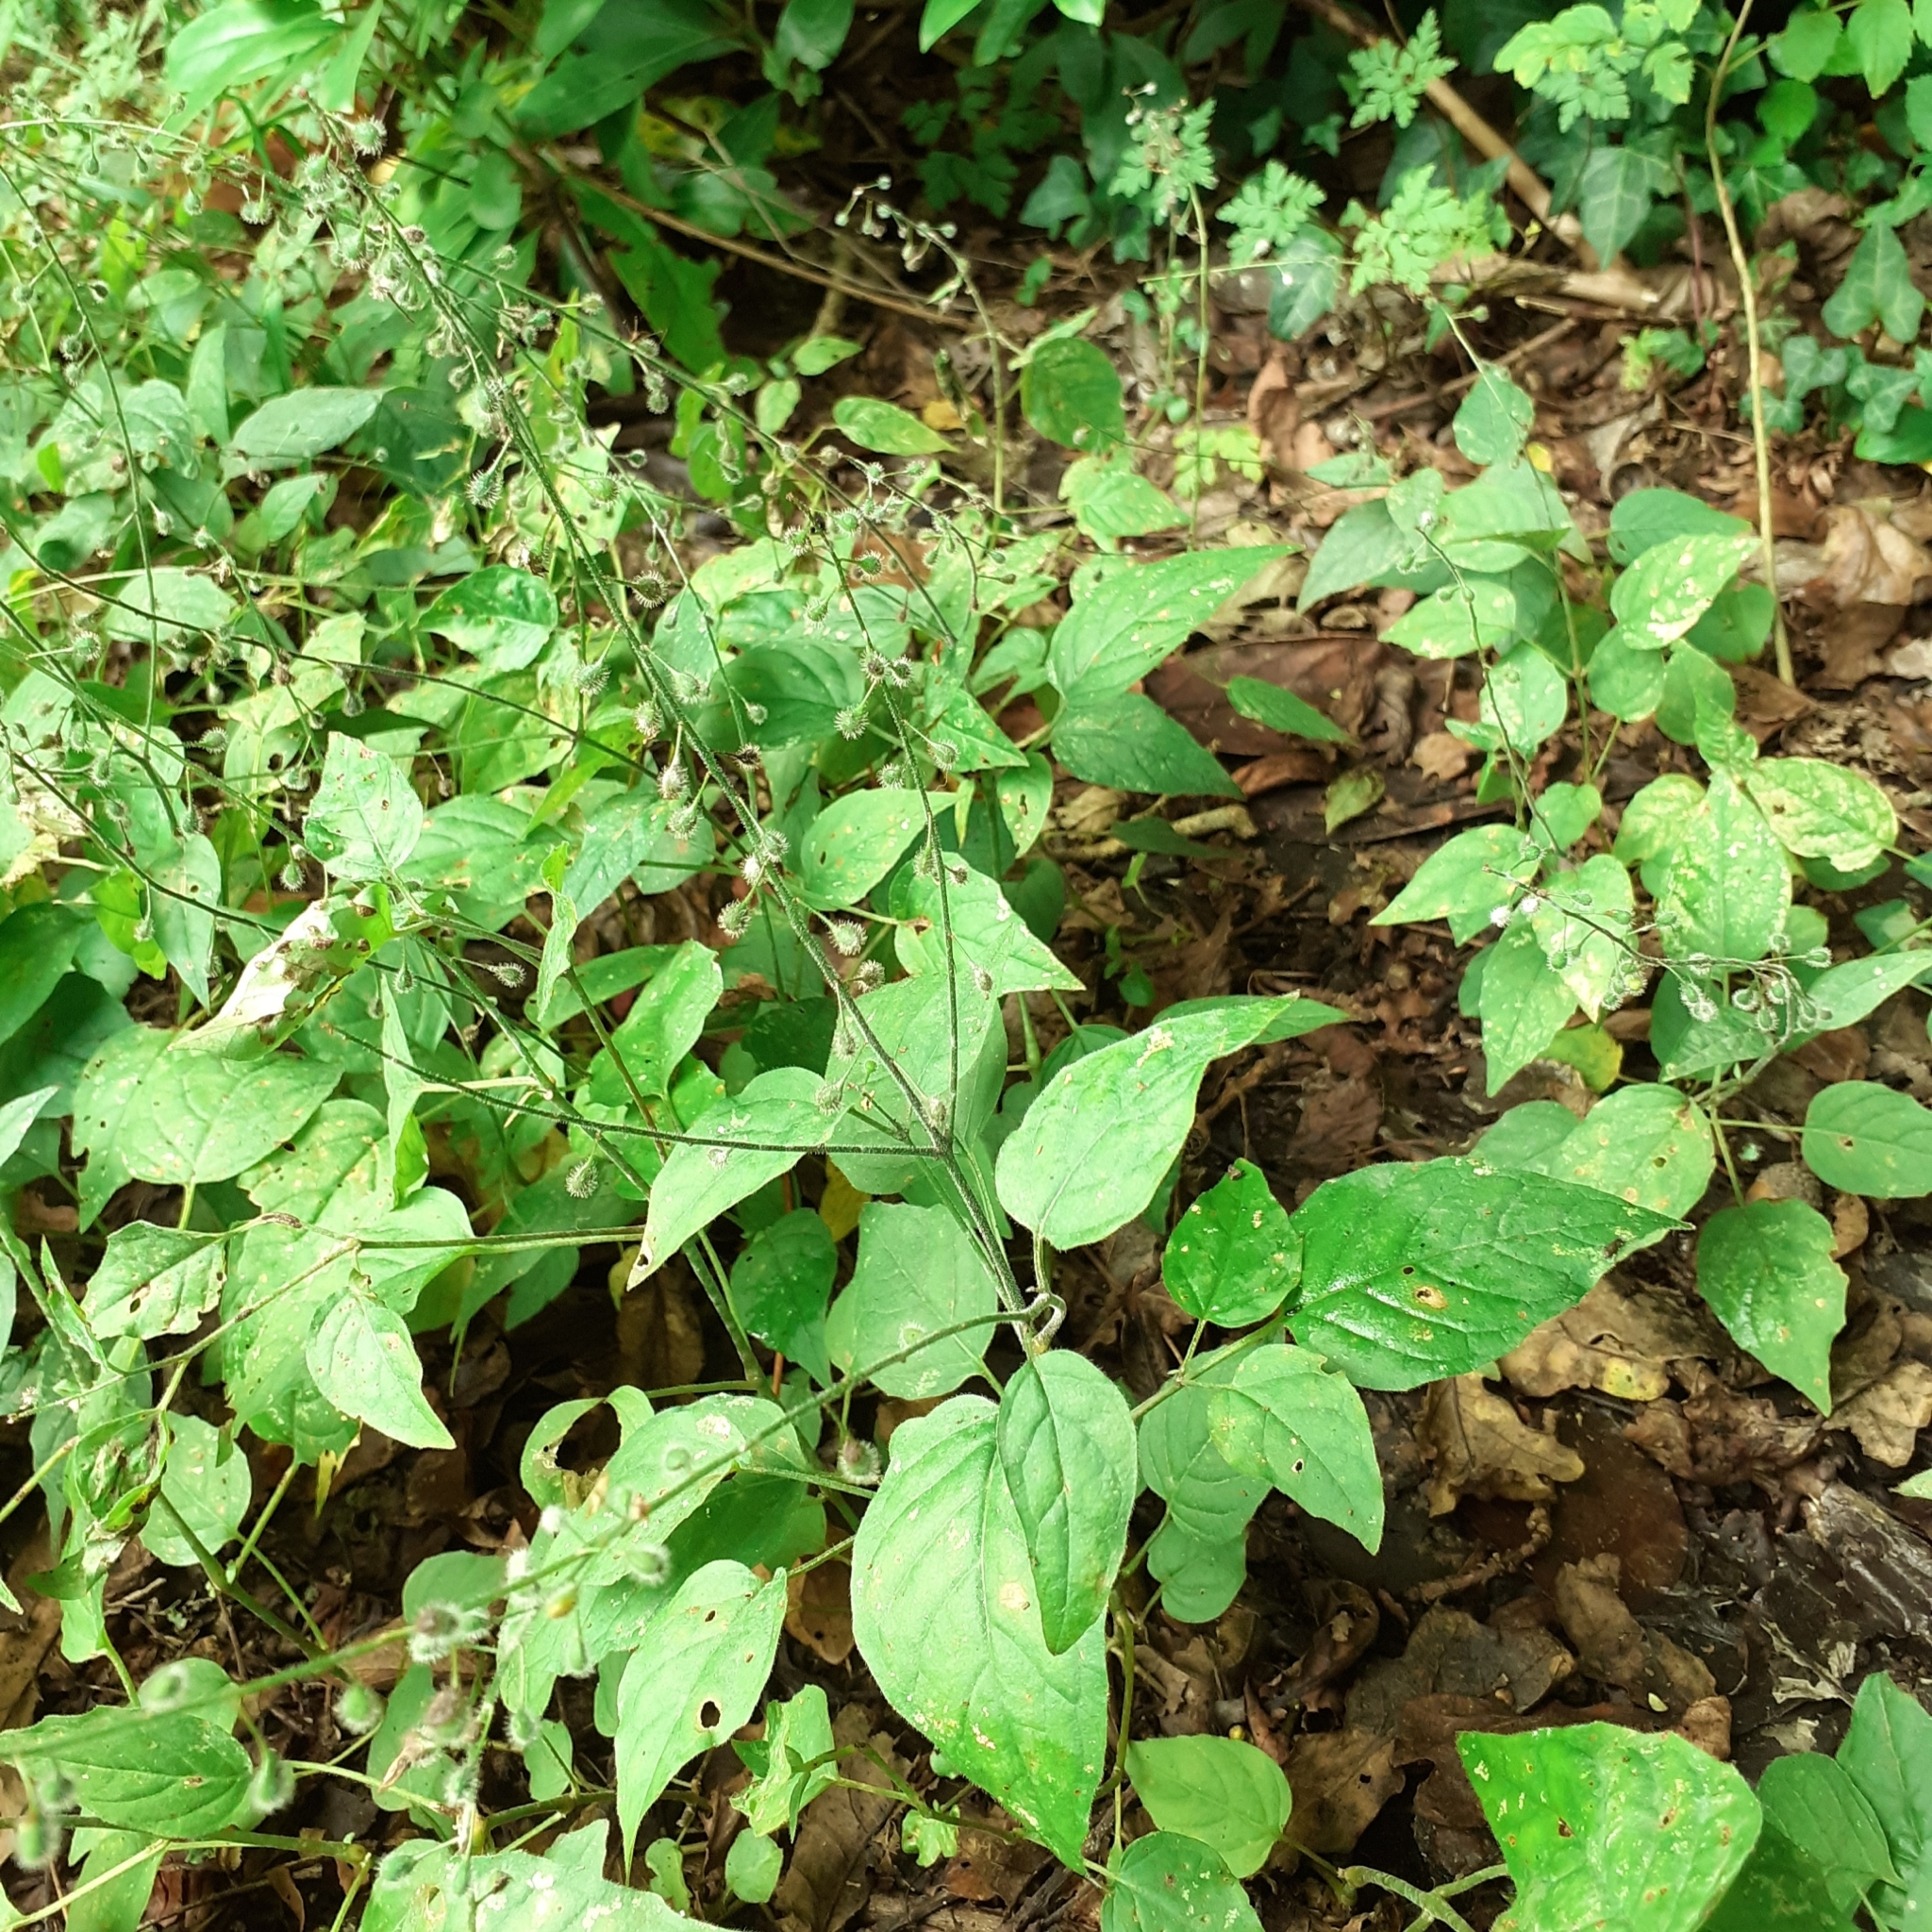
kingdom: Plantae
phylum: Tracheophyta
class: Magnoliopsida
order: Myrtales
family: Onagraceae
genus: Circaea
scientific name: Circaea lutetiana
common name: Enchanter's-nightshade
